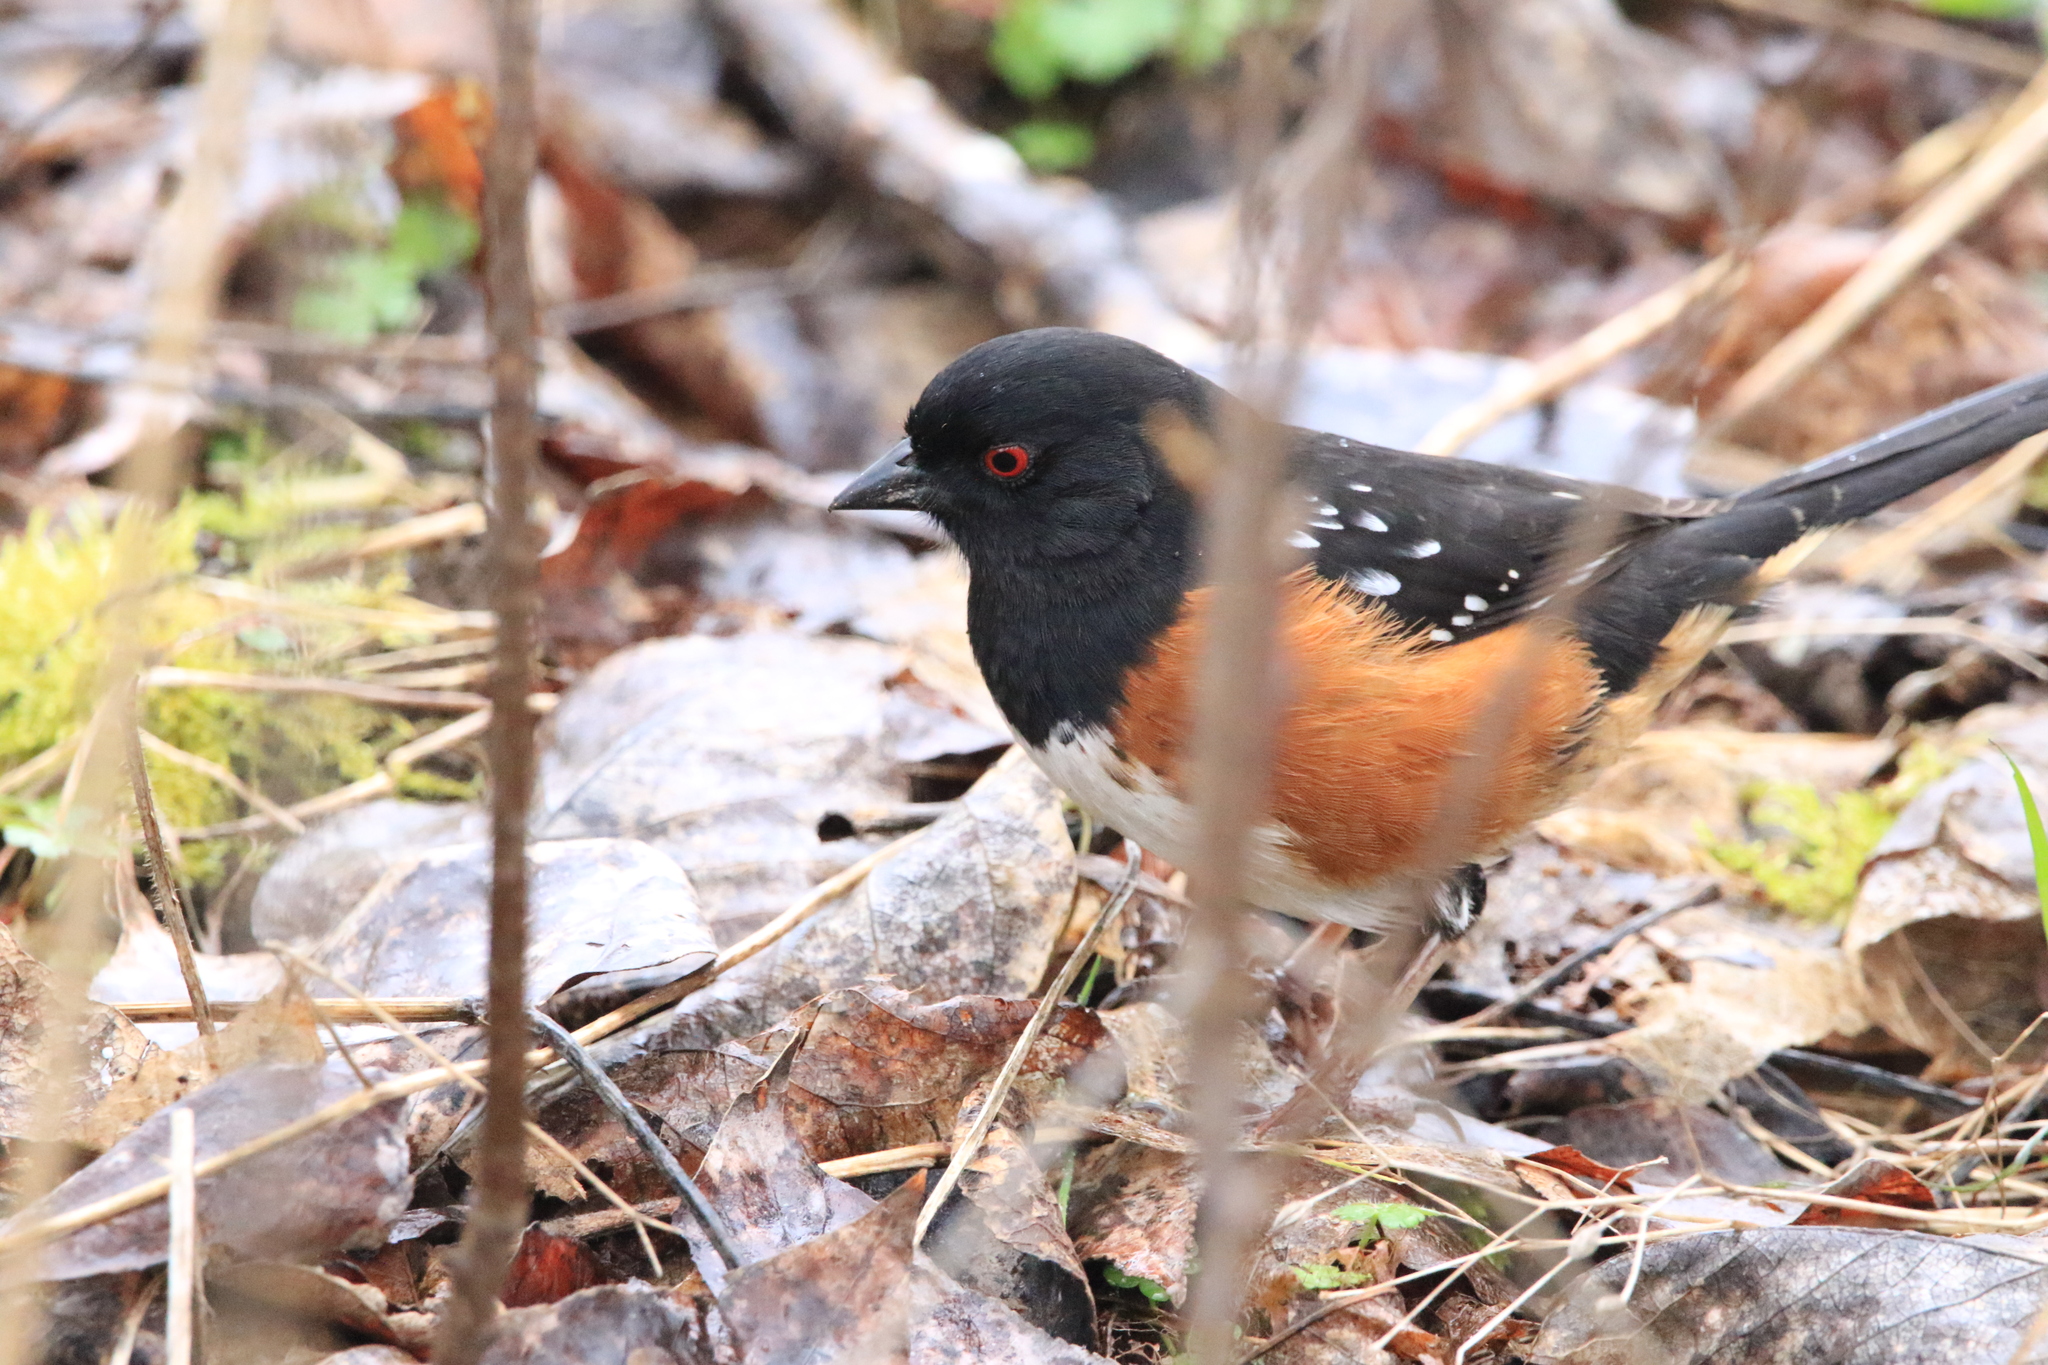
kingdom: Animalia
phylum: Chordata
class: Aves
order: Passeriformes
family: Passerellidae
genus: Pipilo
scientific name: Pipilo maculatus
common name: Spotted towhee
